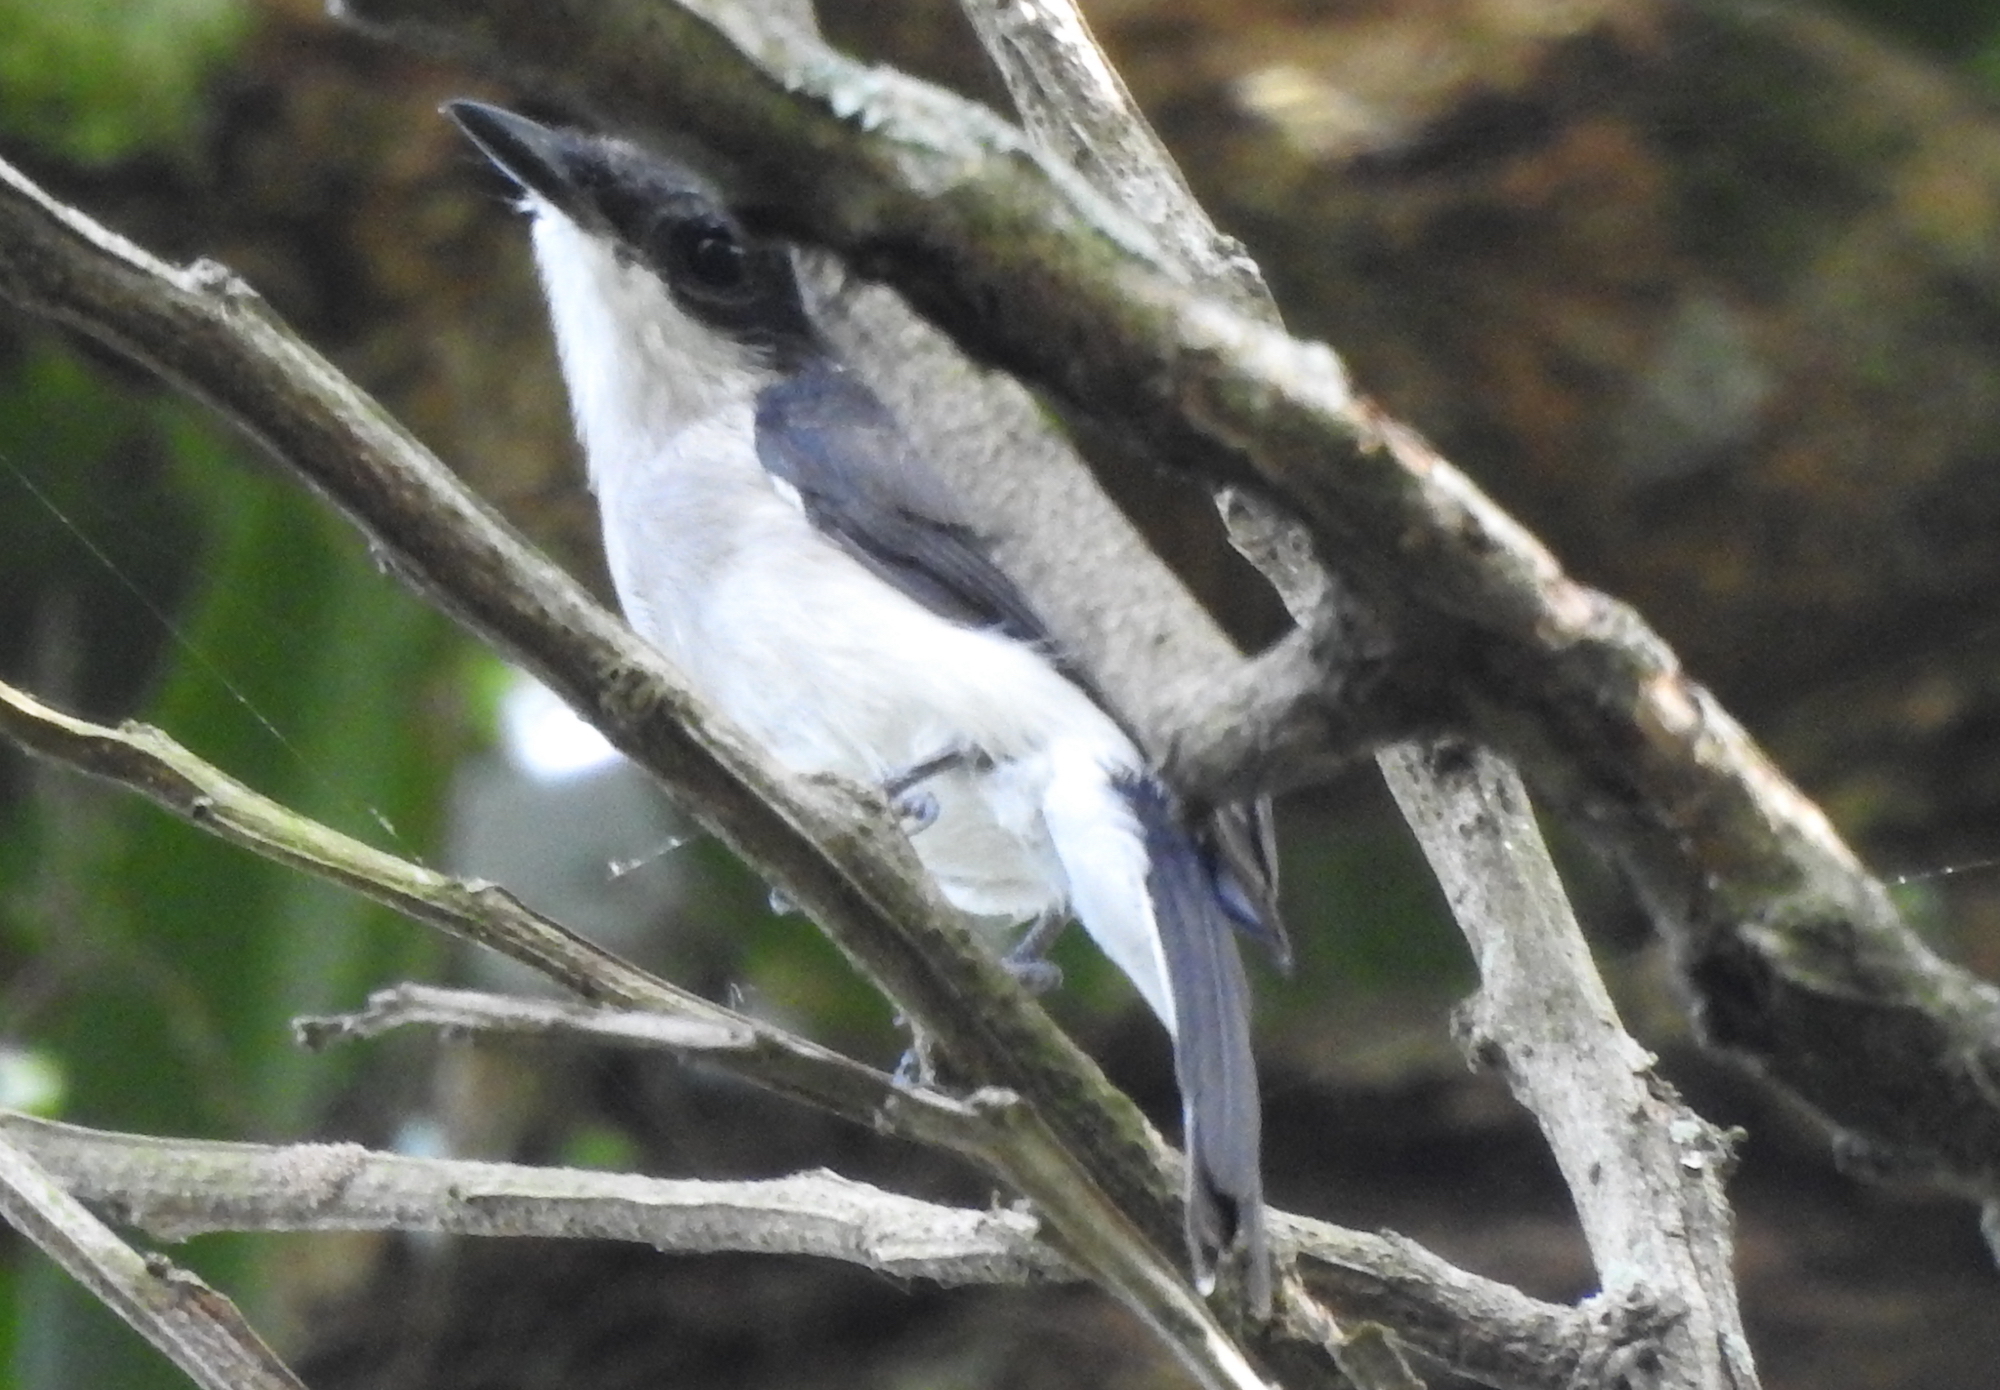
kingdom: Animalia
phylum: Chordata
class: Aves
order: Passeriformes
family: Tephrodornithidae
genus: Hemipus
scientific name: Hemipus hirundinaceus
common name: Black-winged flycatcher-shrike
